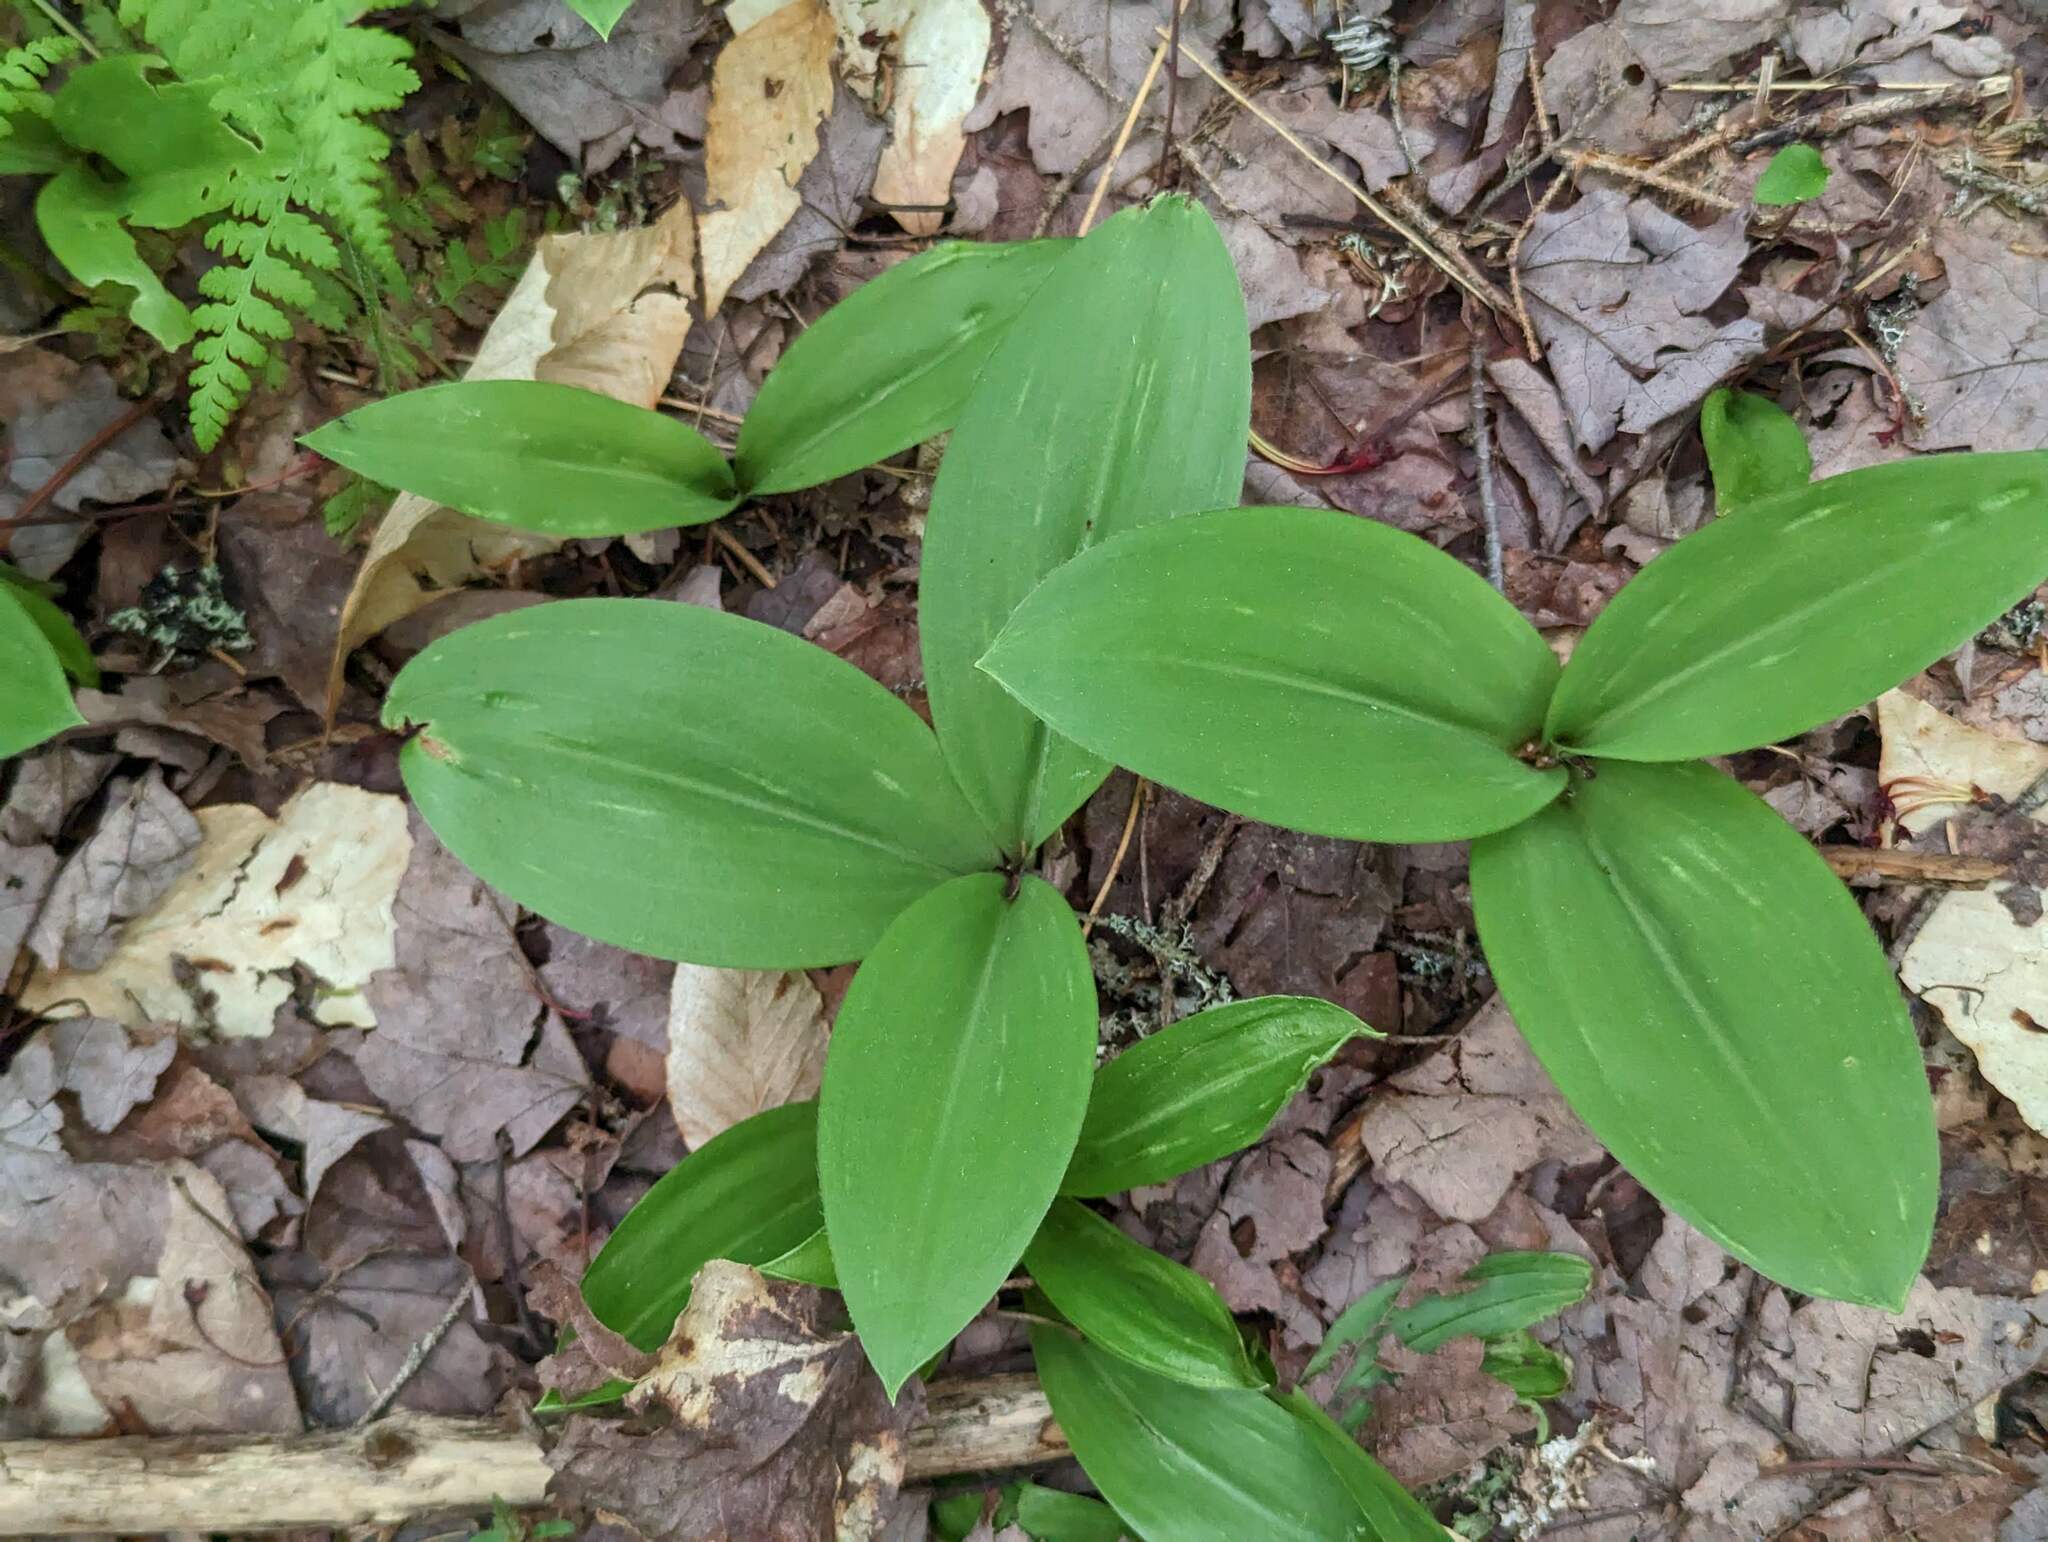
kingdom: Plantae
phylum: Tracheophyta
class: Liliopsida
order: Liliales
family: Liliaceae
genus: Clintonia
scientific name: Clintonia borealis
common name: Yellow clintonia
